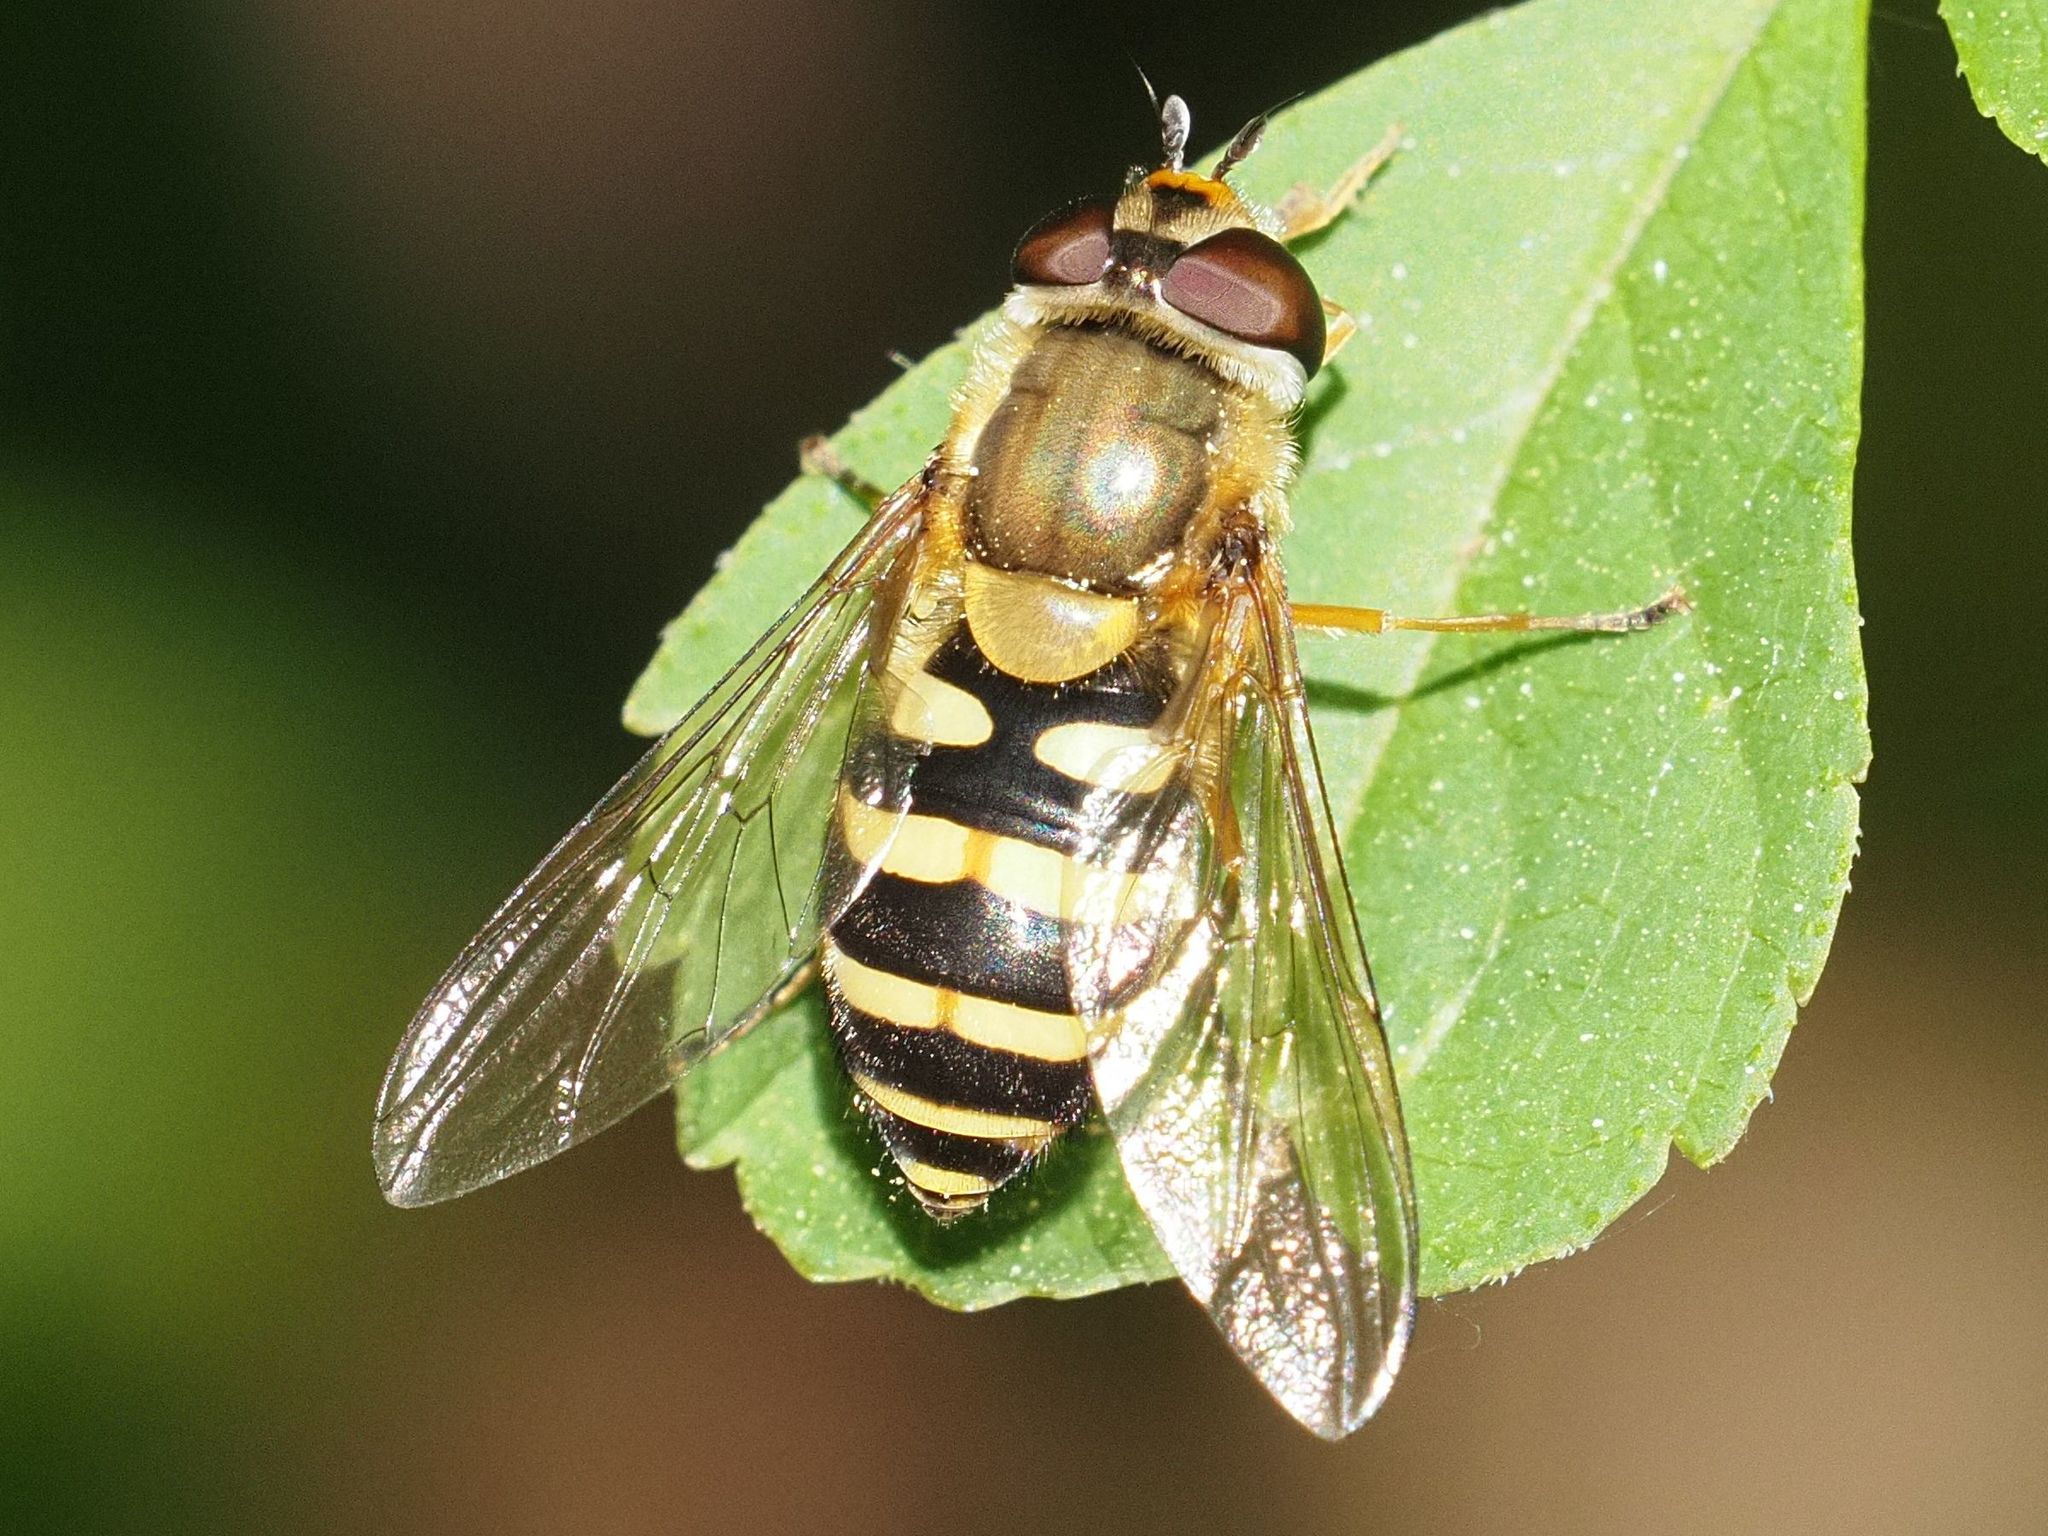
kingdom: Animalia
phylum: Arthropoda
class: Insecta
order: Diptera
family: Syrphidae
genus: Syrphus
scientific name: Syrphus
